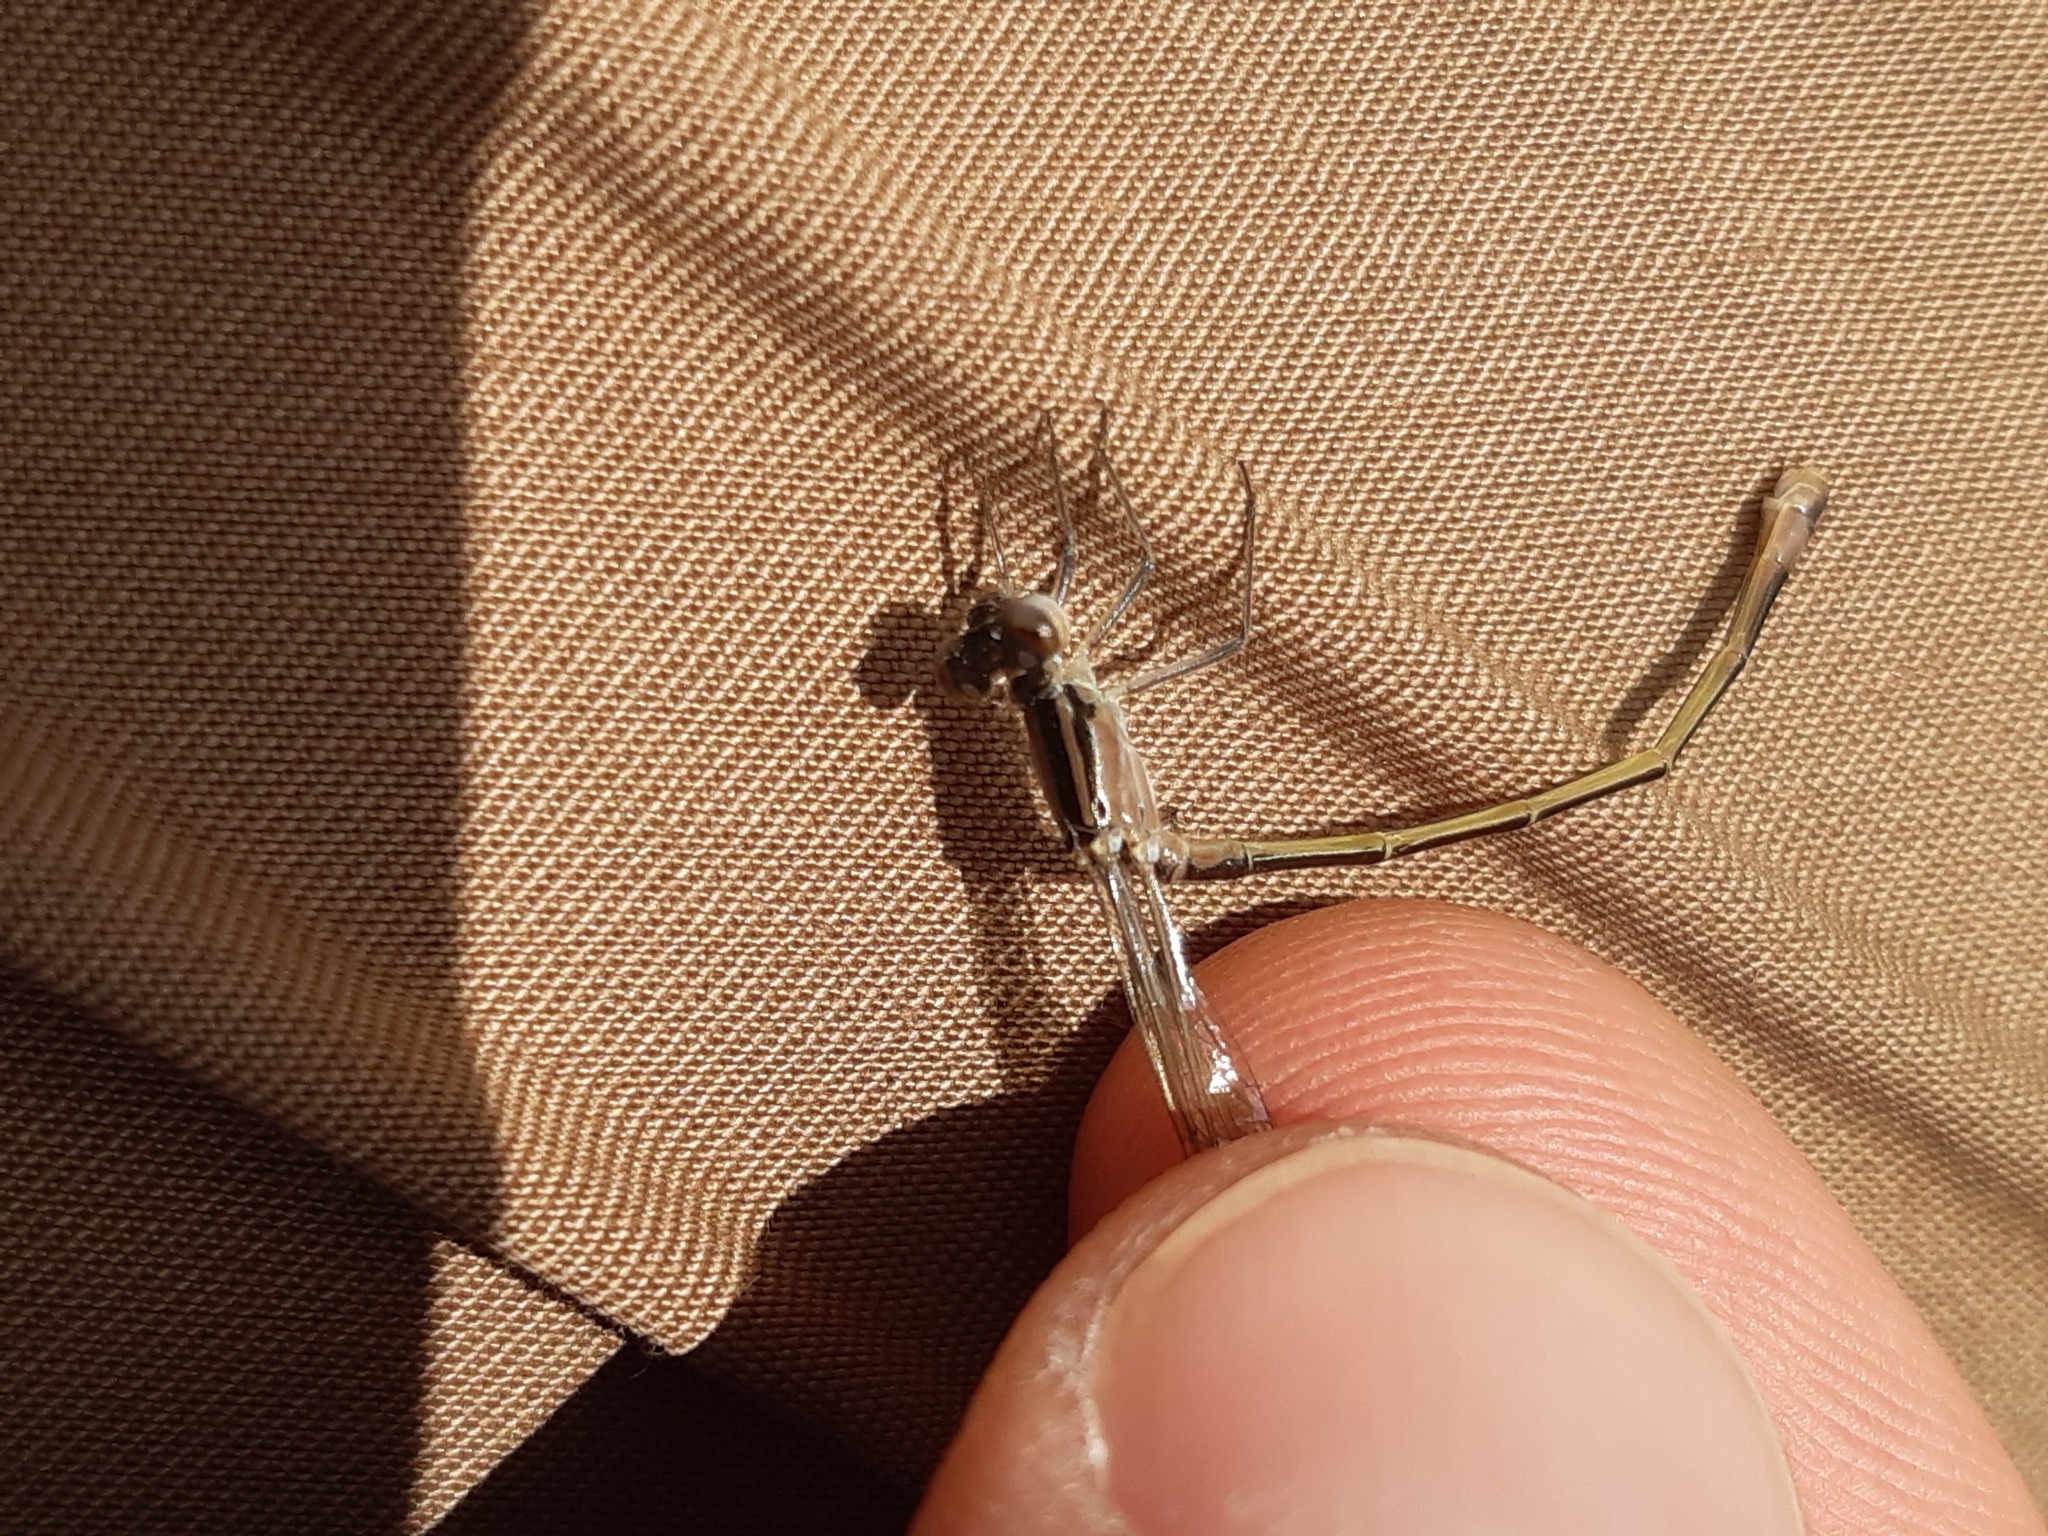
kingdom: Animalia
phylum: Arthropoda
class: Insecta
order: Odonata
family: Coenagrionidae
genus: Ischnura
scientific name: Ischnura elegans
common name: Blue-tailed damselfly
